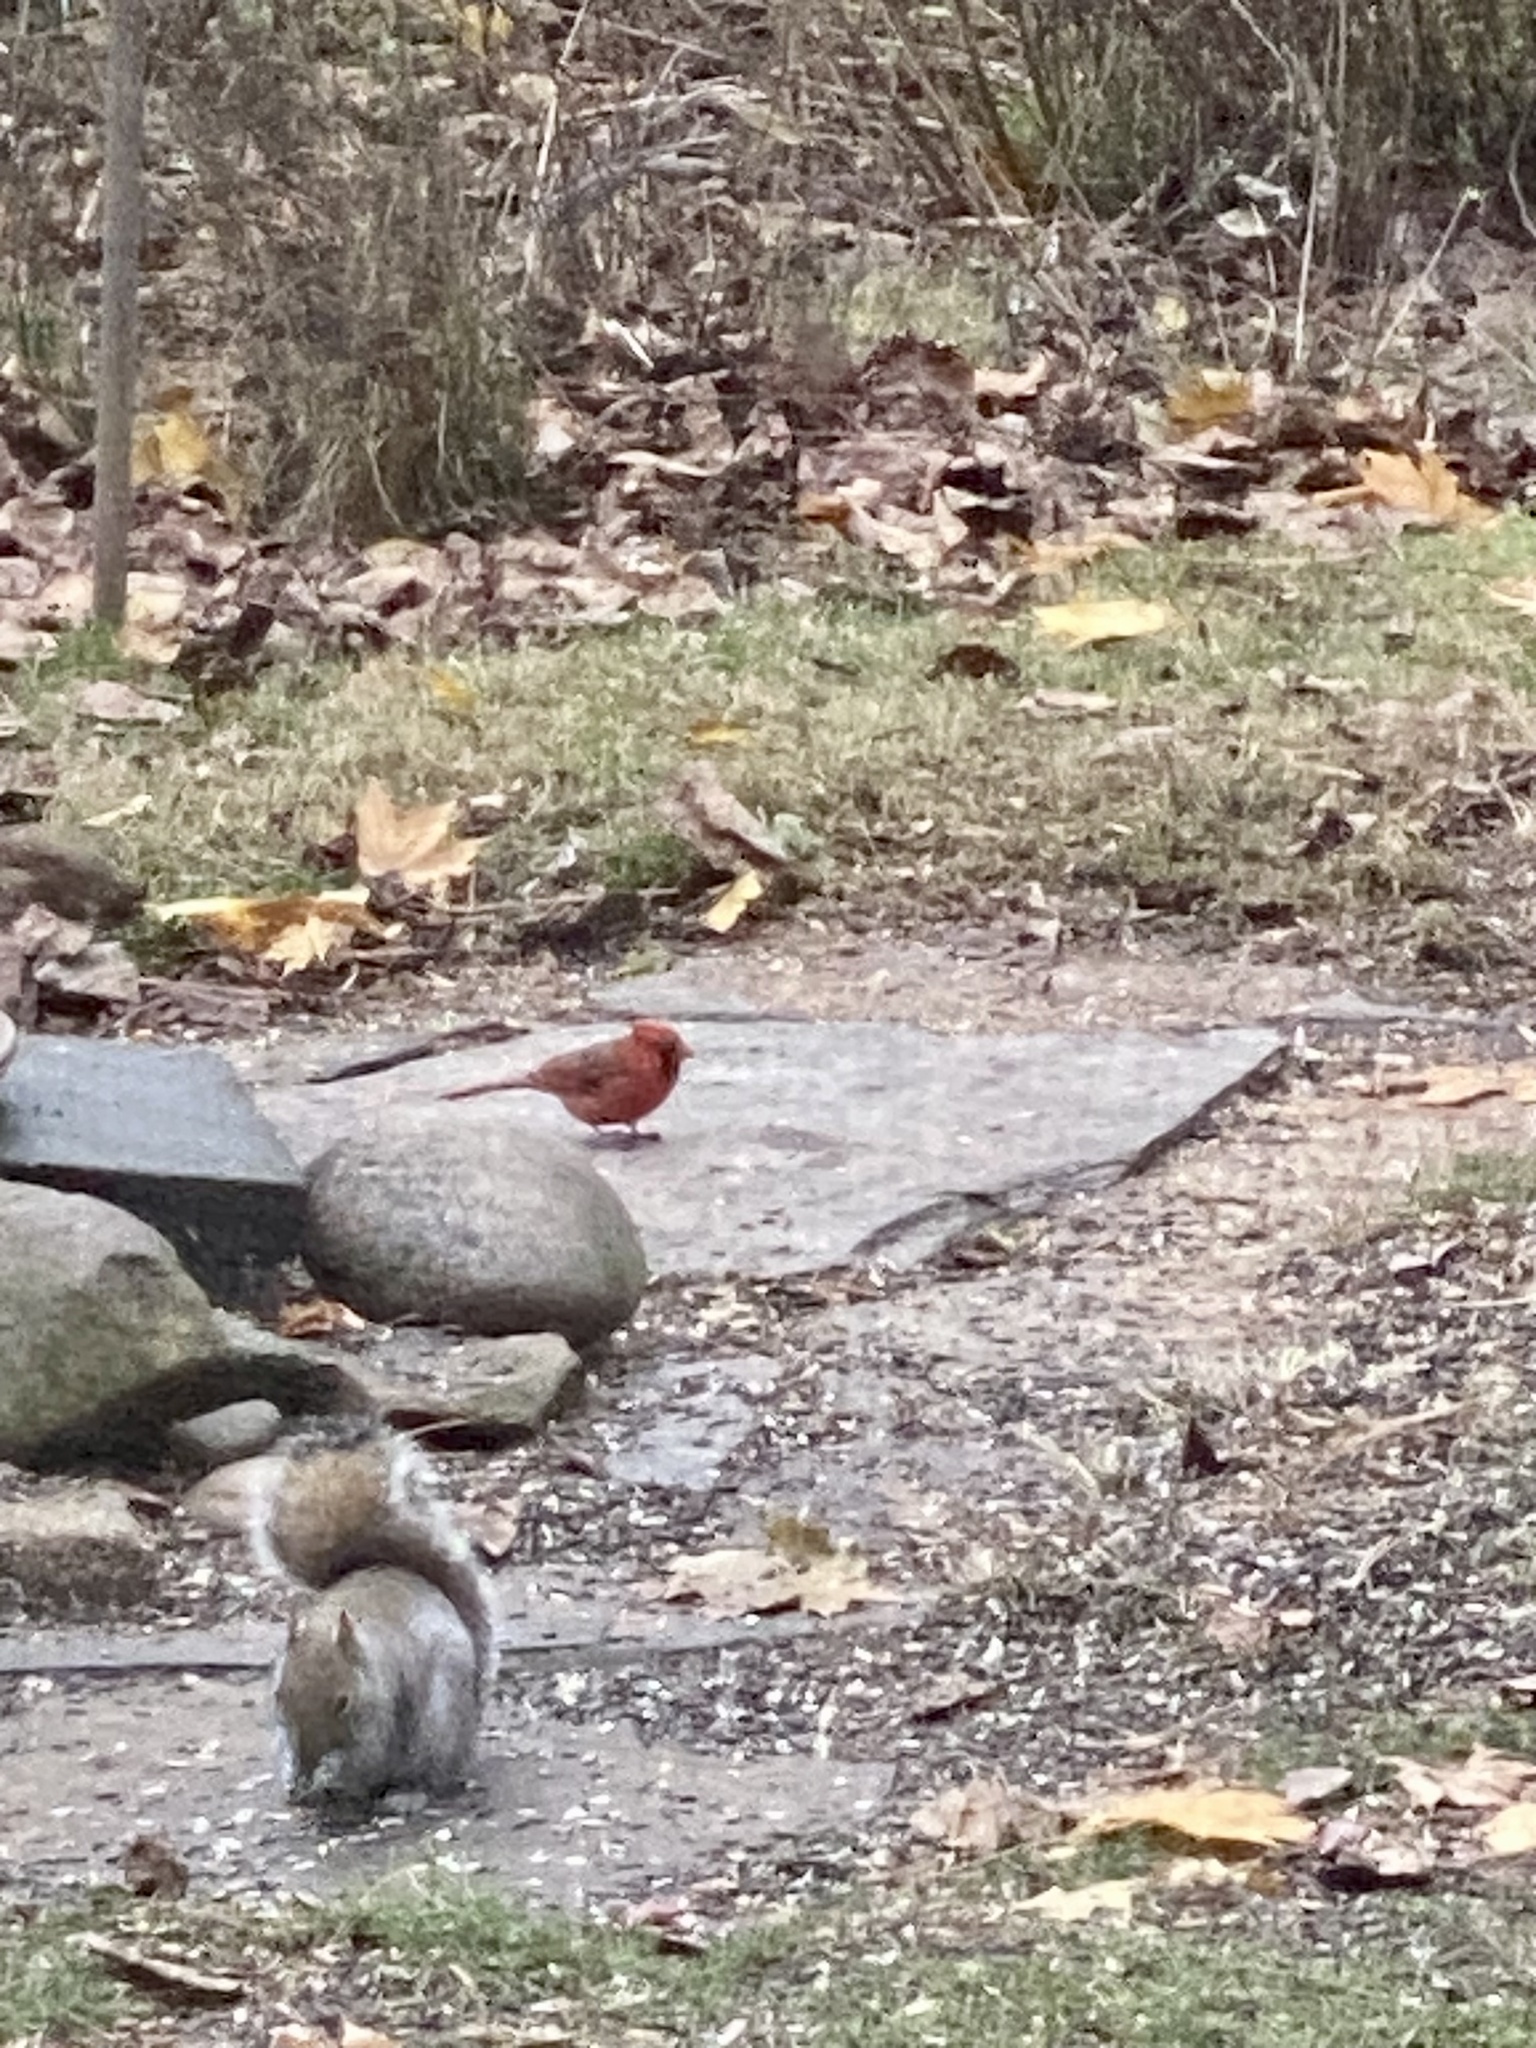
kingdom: Animalia
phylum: Chordata
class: Aves
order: Passeriformes
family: Cardinalidae
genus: Cardinalis
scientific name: Cardinalis cardinalis
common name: Northern cardinal
